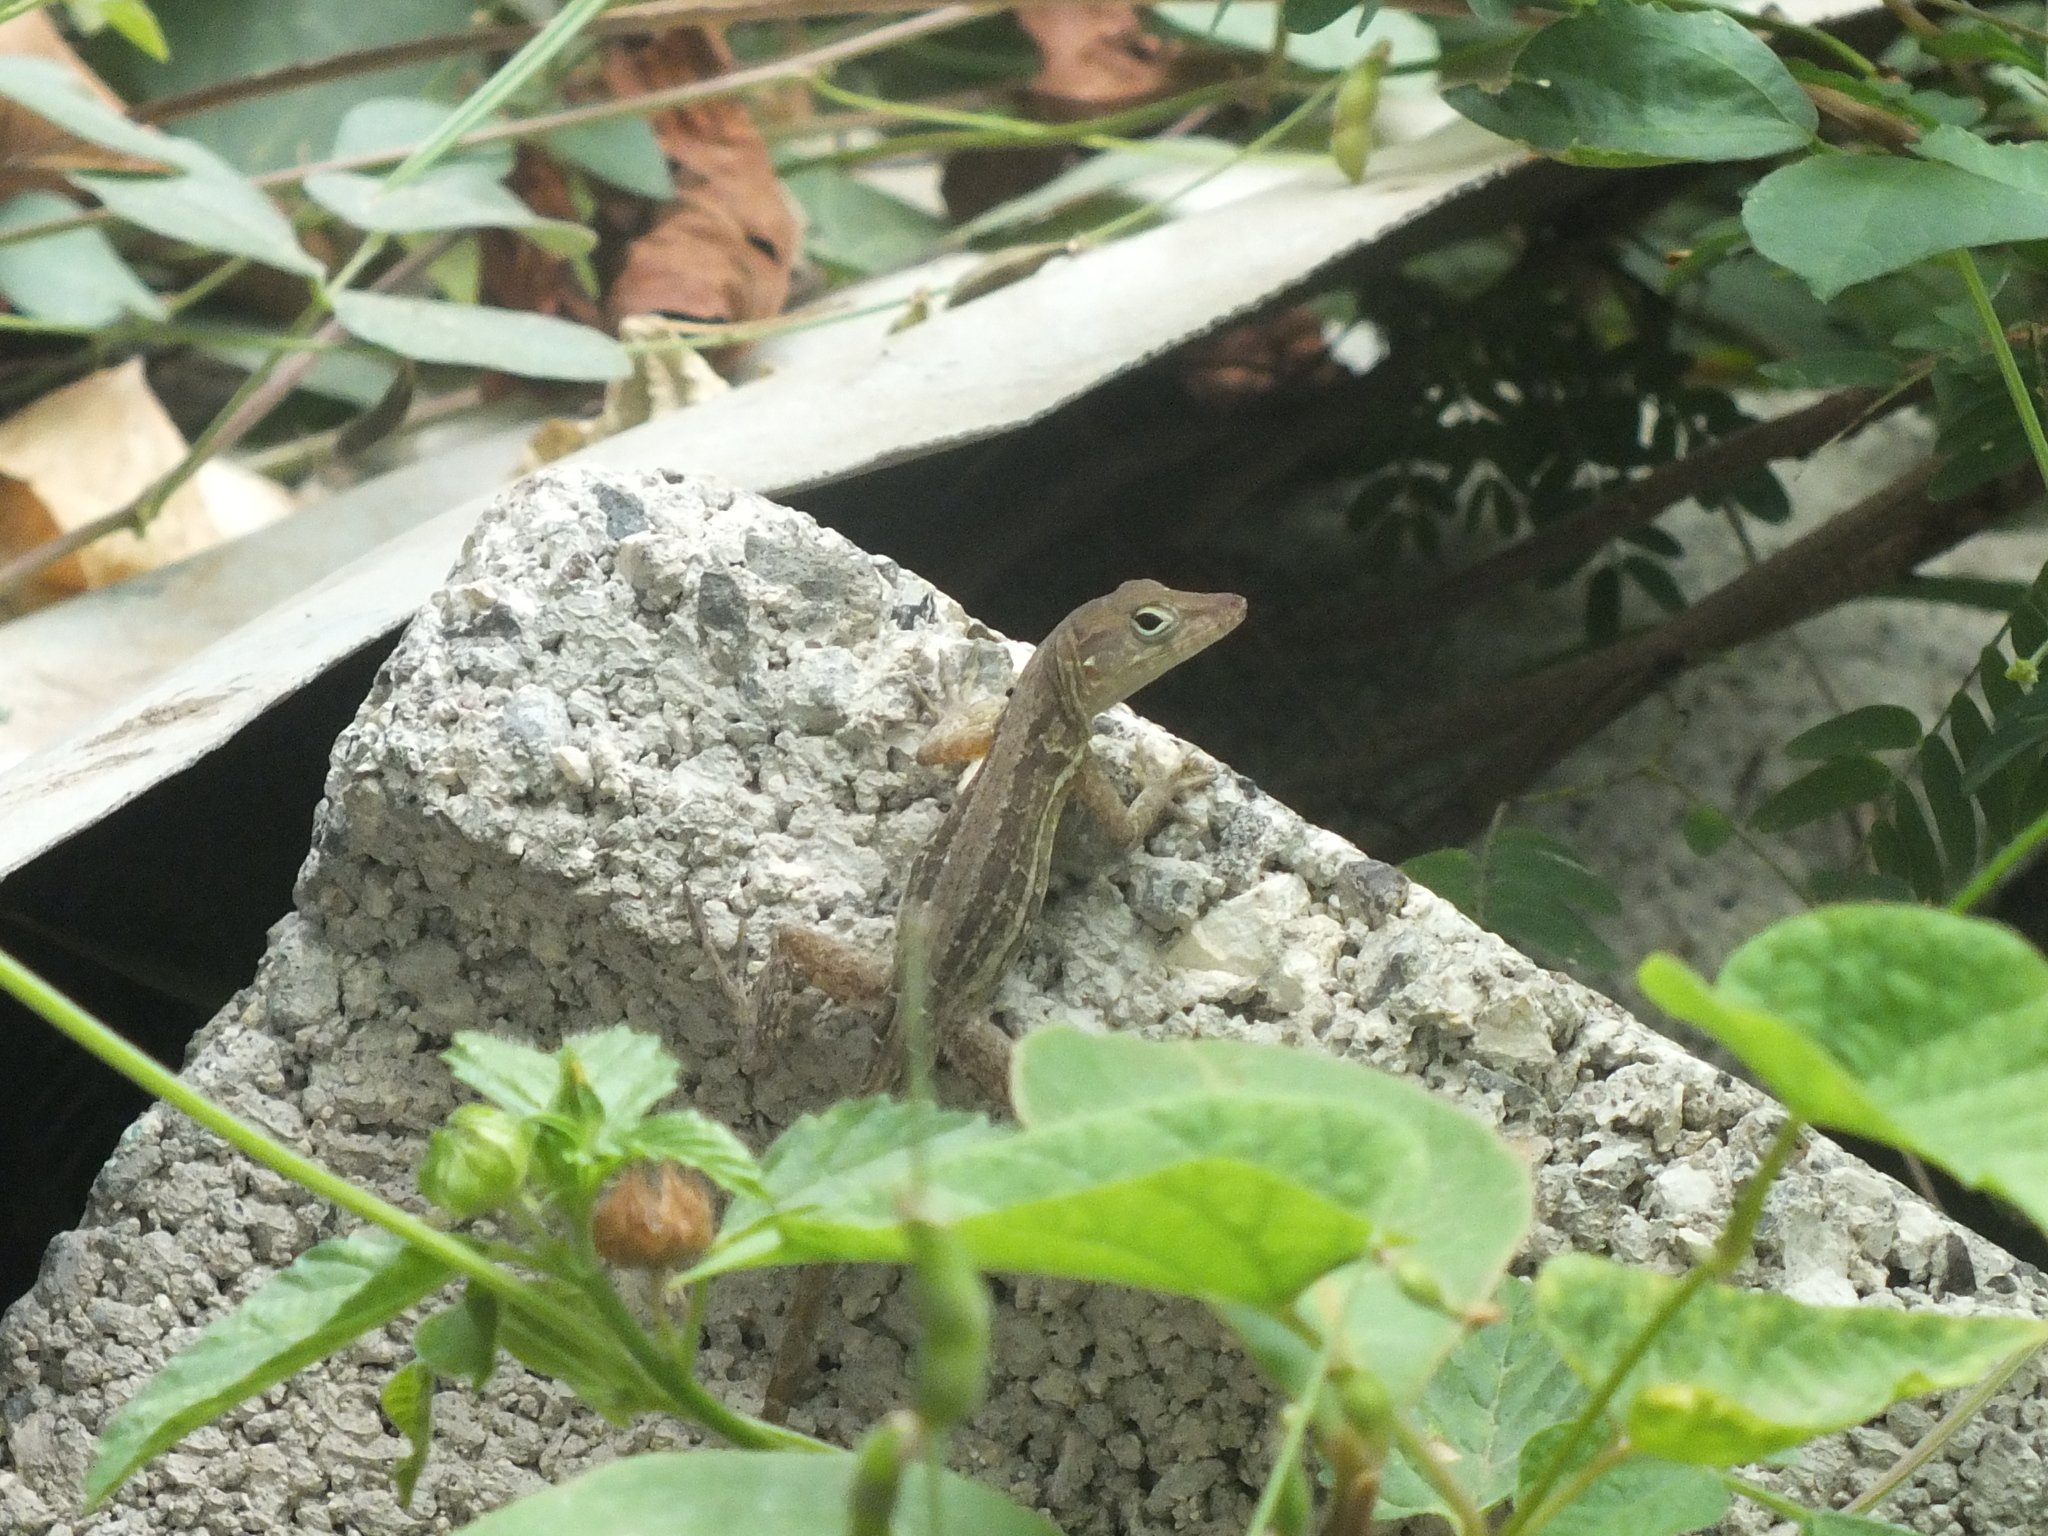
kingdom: Animalia
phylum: Chordata
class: Squamata
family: Dactyloidae
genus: Anolis
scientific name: Anolis lineatopus
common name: Stripefoot anole
